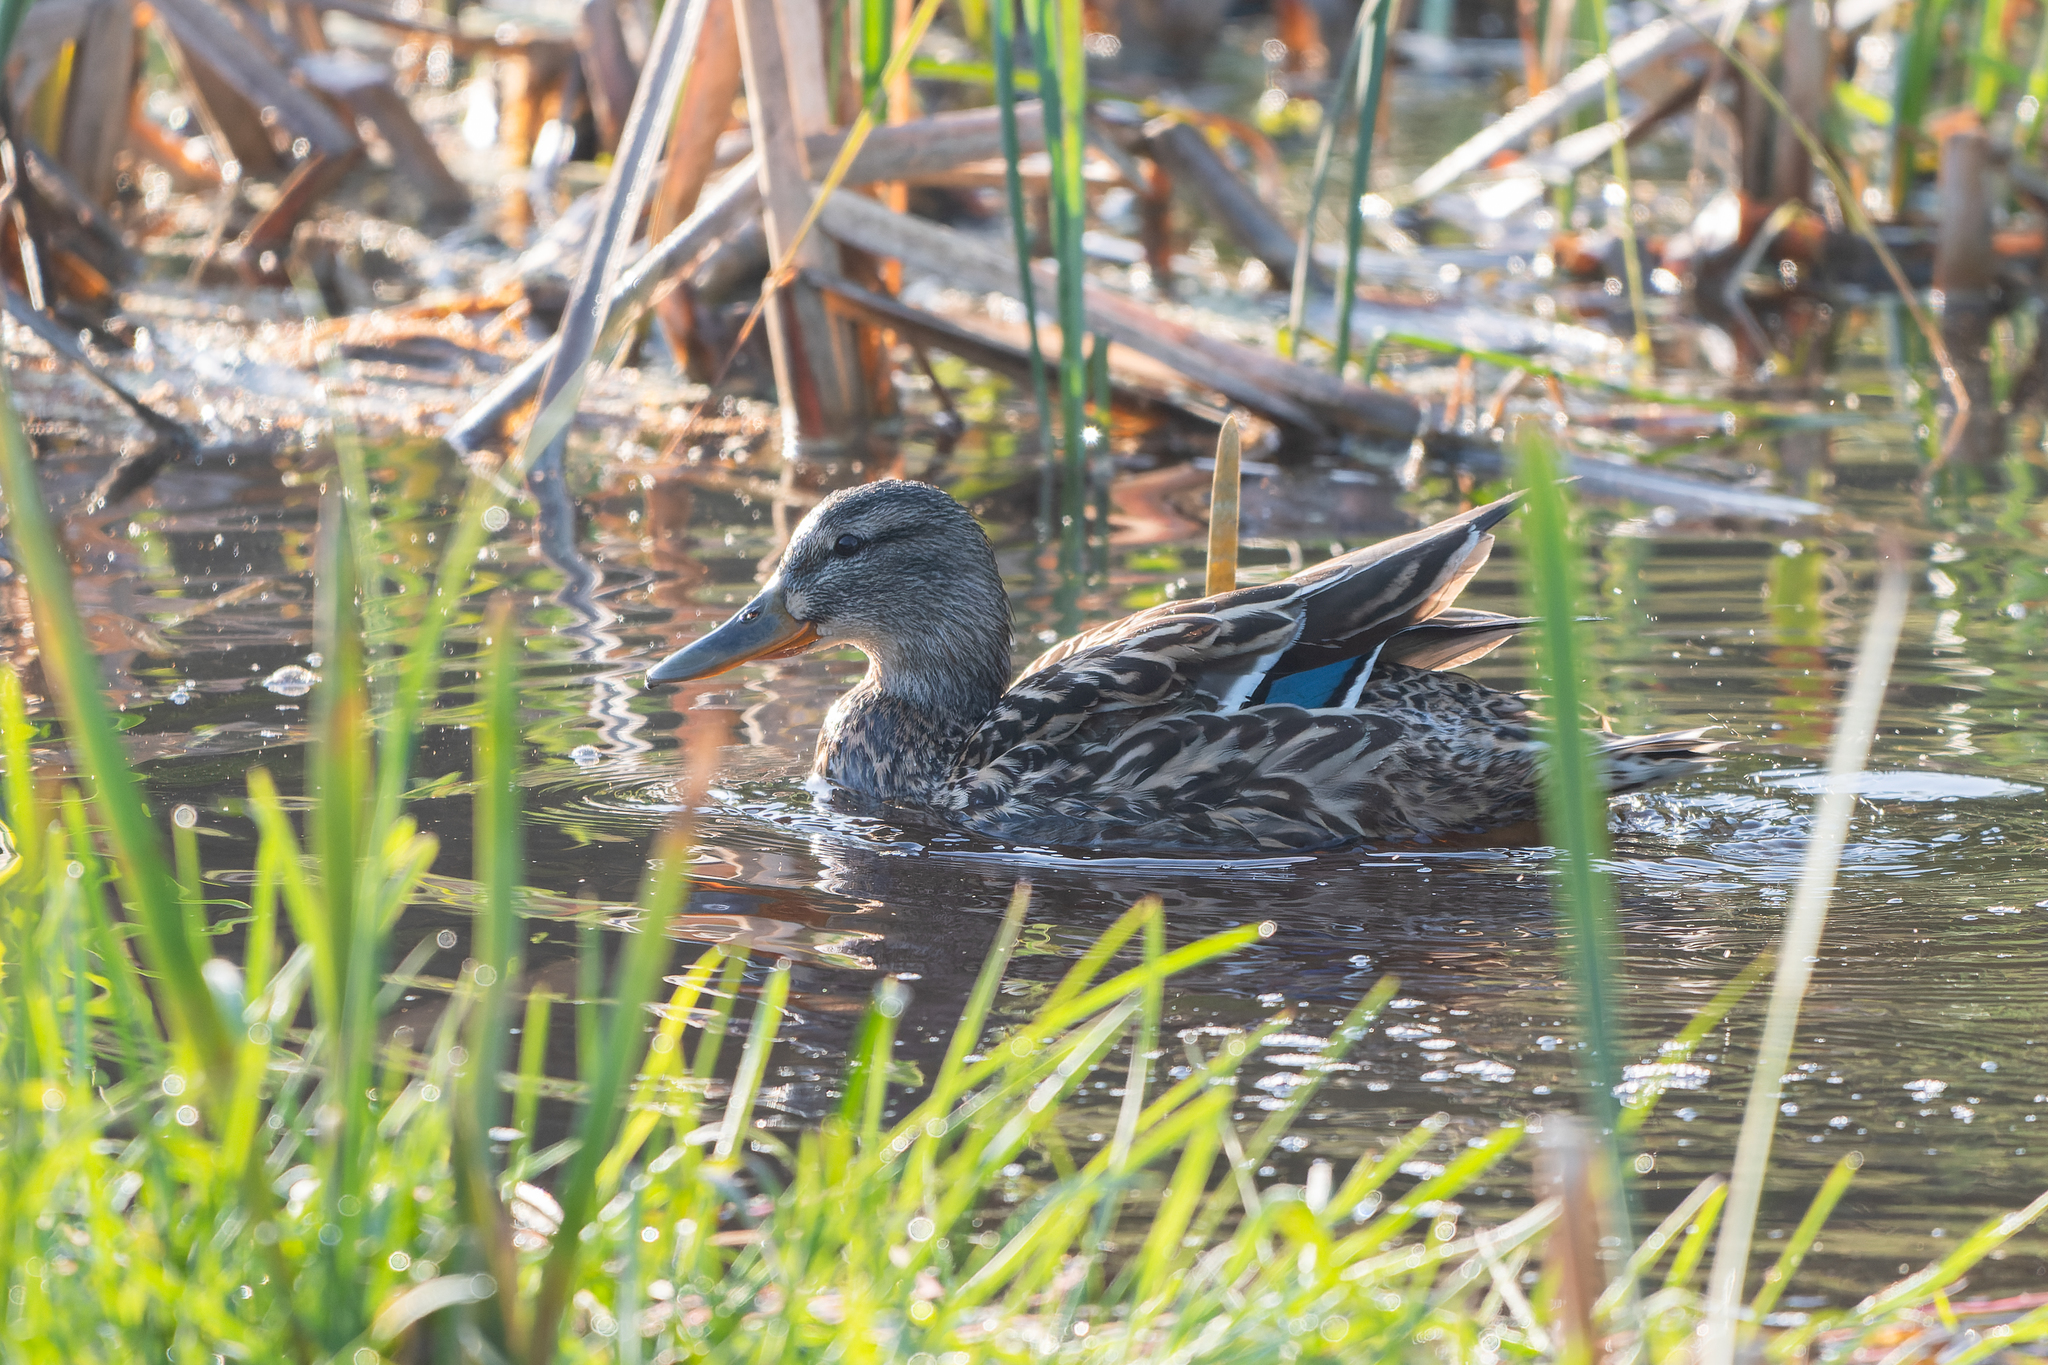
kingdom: Animalia
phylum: Chordata
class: Aves
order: Anseriformes
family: Anatidae
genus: Anas
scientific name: Anas platyrhynchos
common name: Mallard
